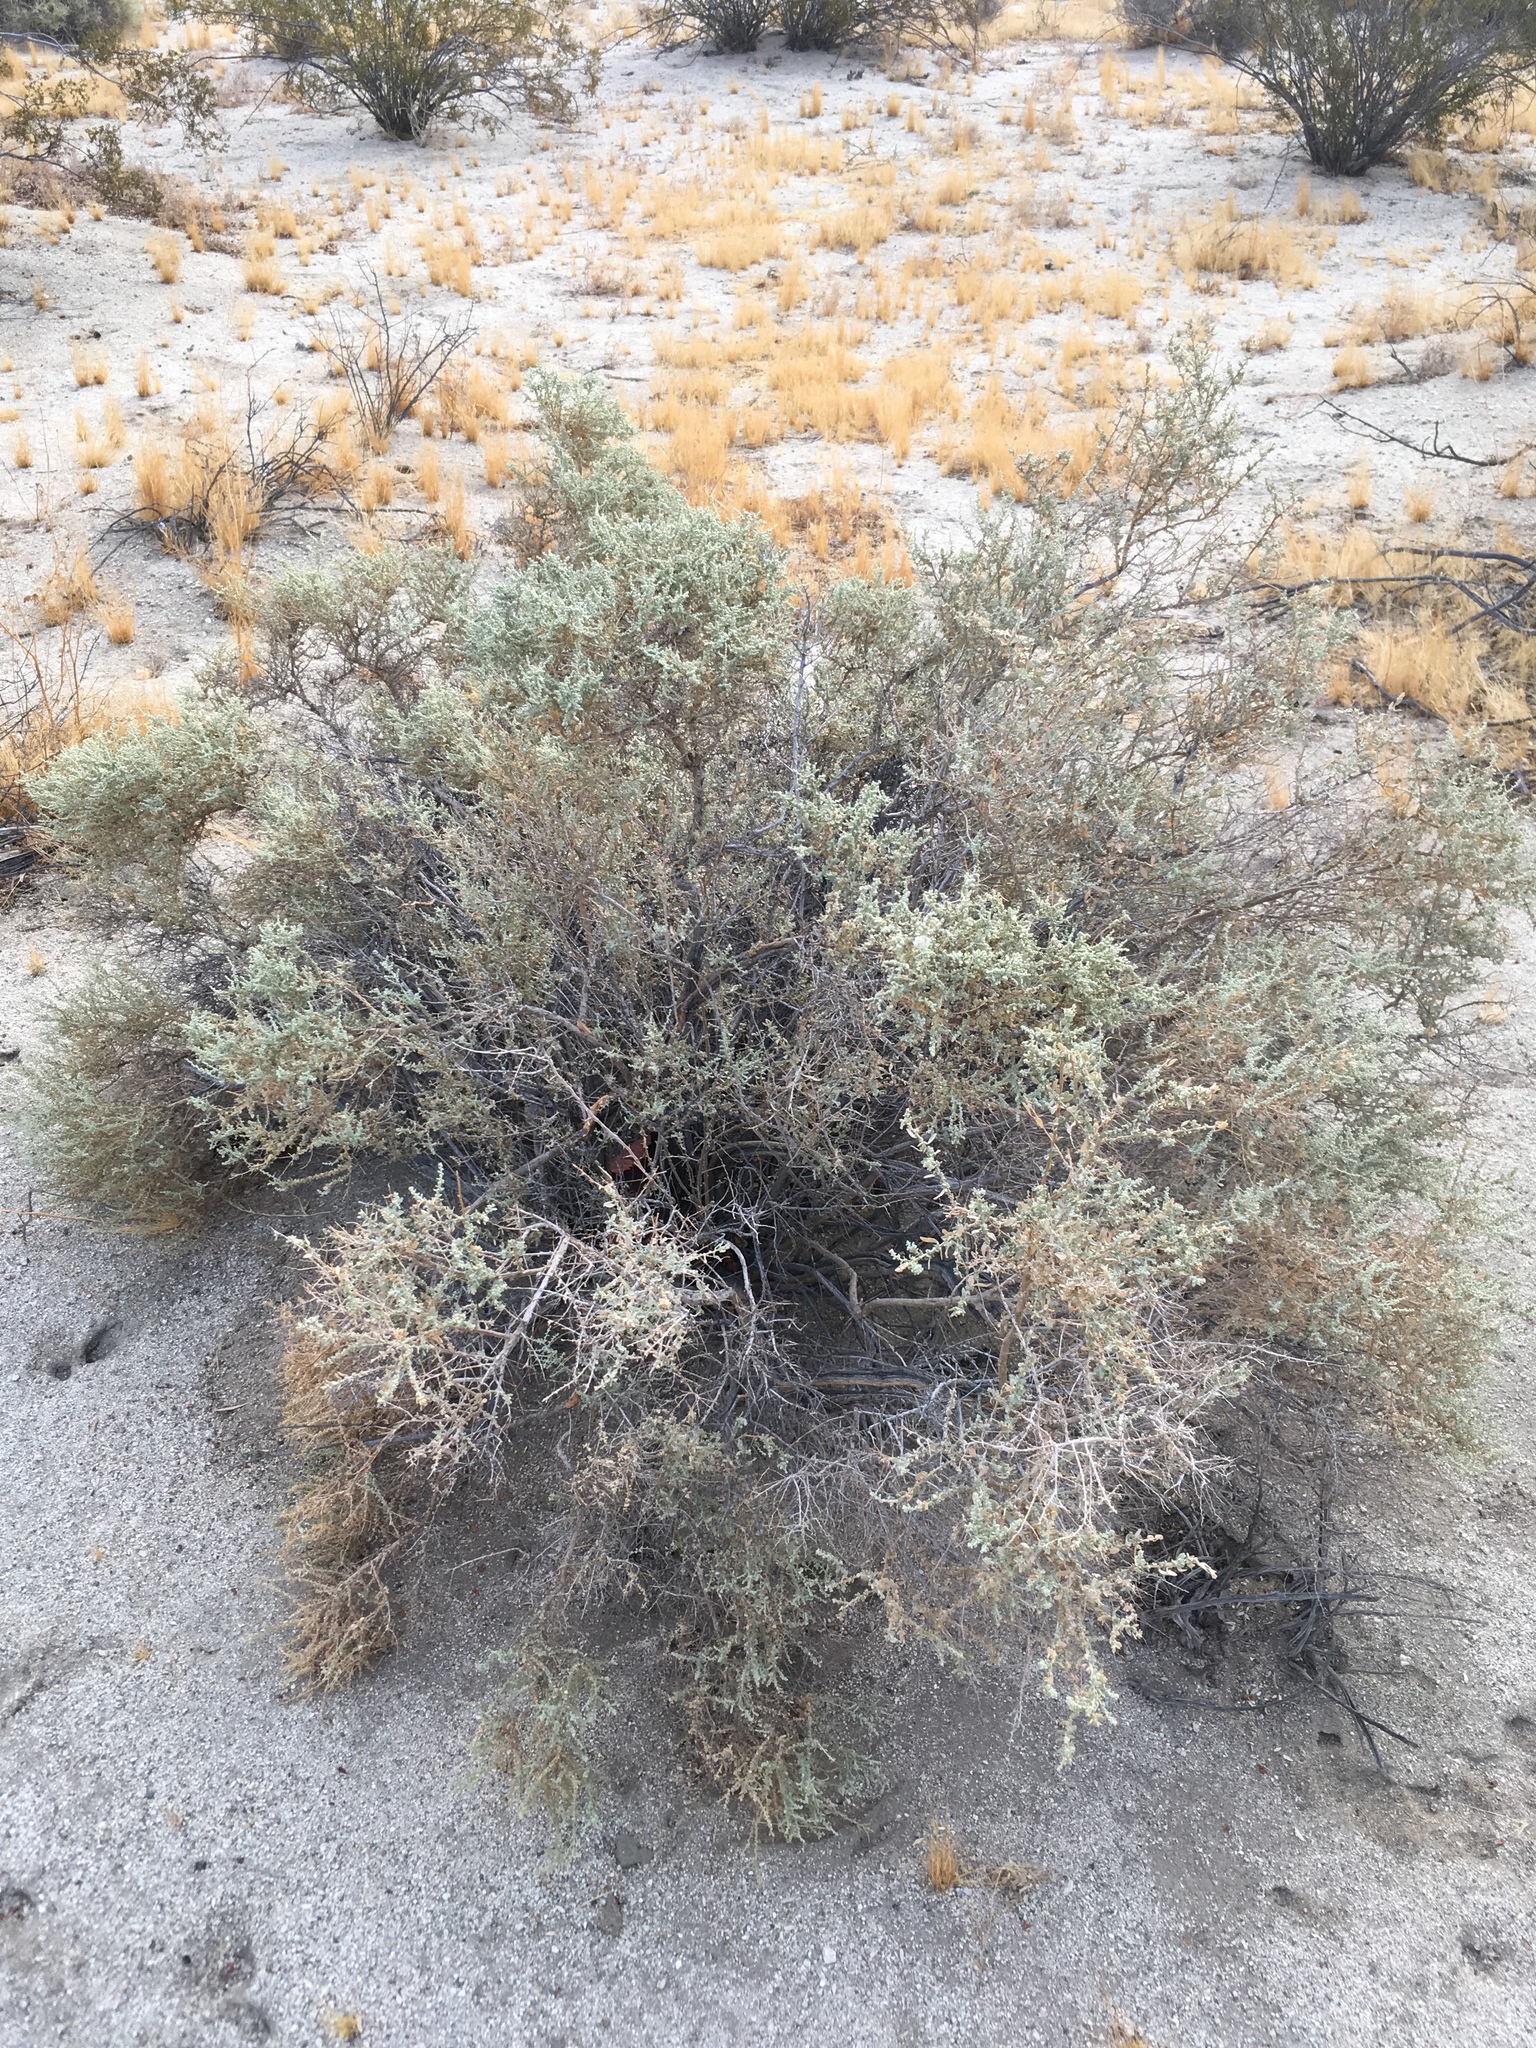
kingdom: Plantae
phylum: Tracheophyta
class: Magnoliopsida
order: Caryophyllales
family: Amaranthaceae
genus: Atriplex
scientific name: Atriplex polycarpa
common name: Desert saltbush
